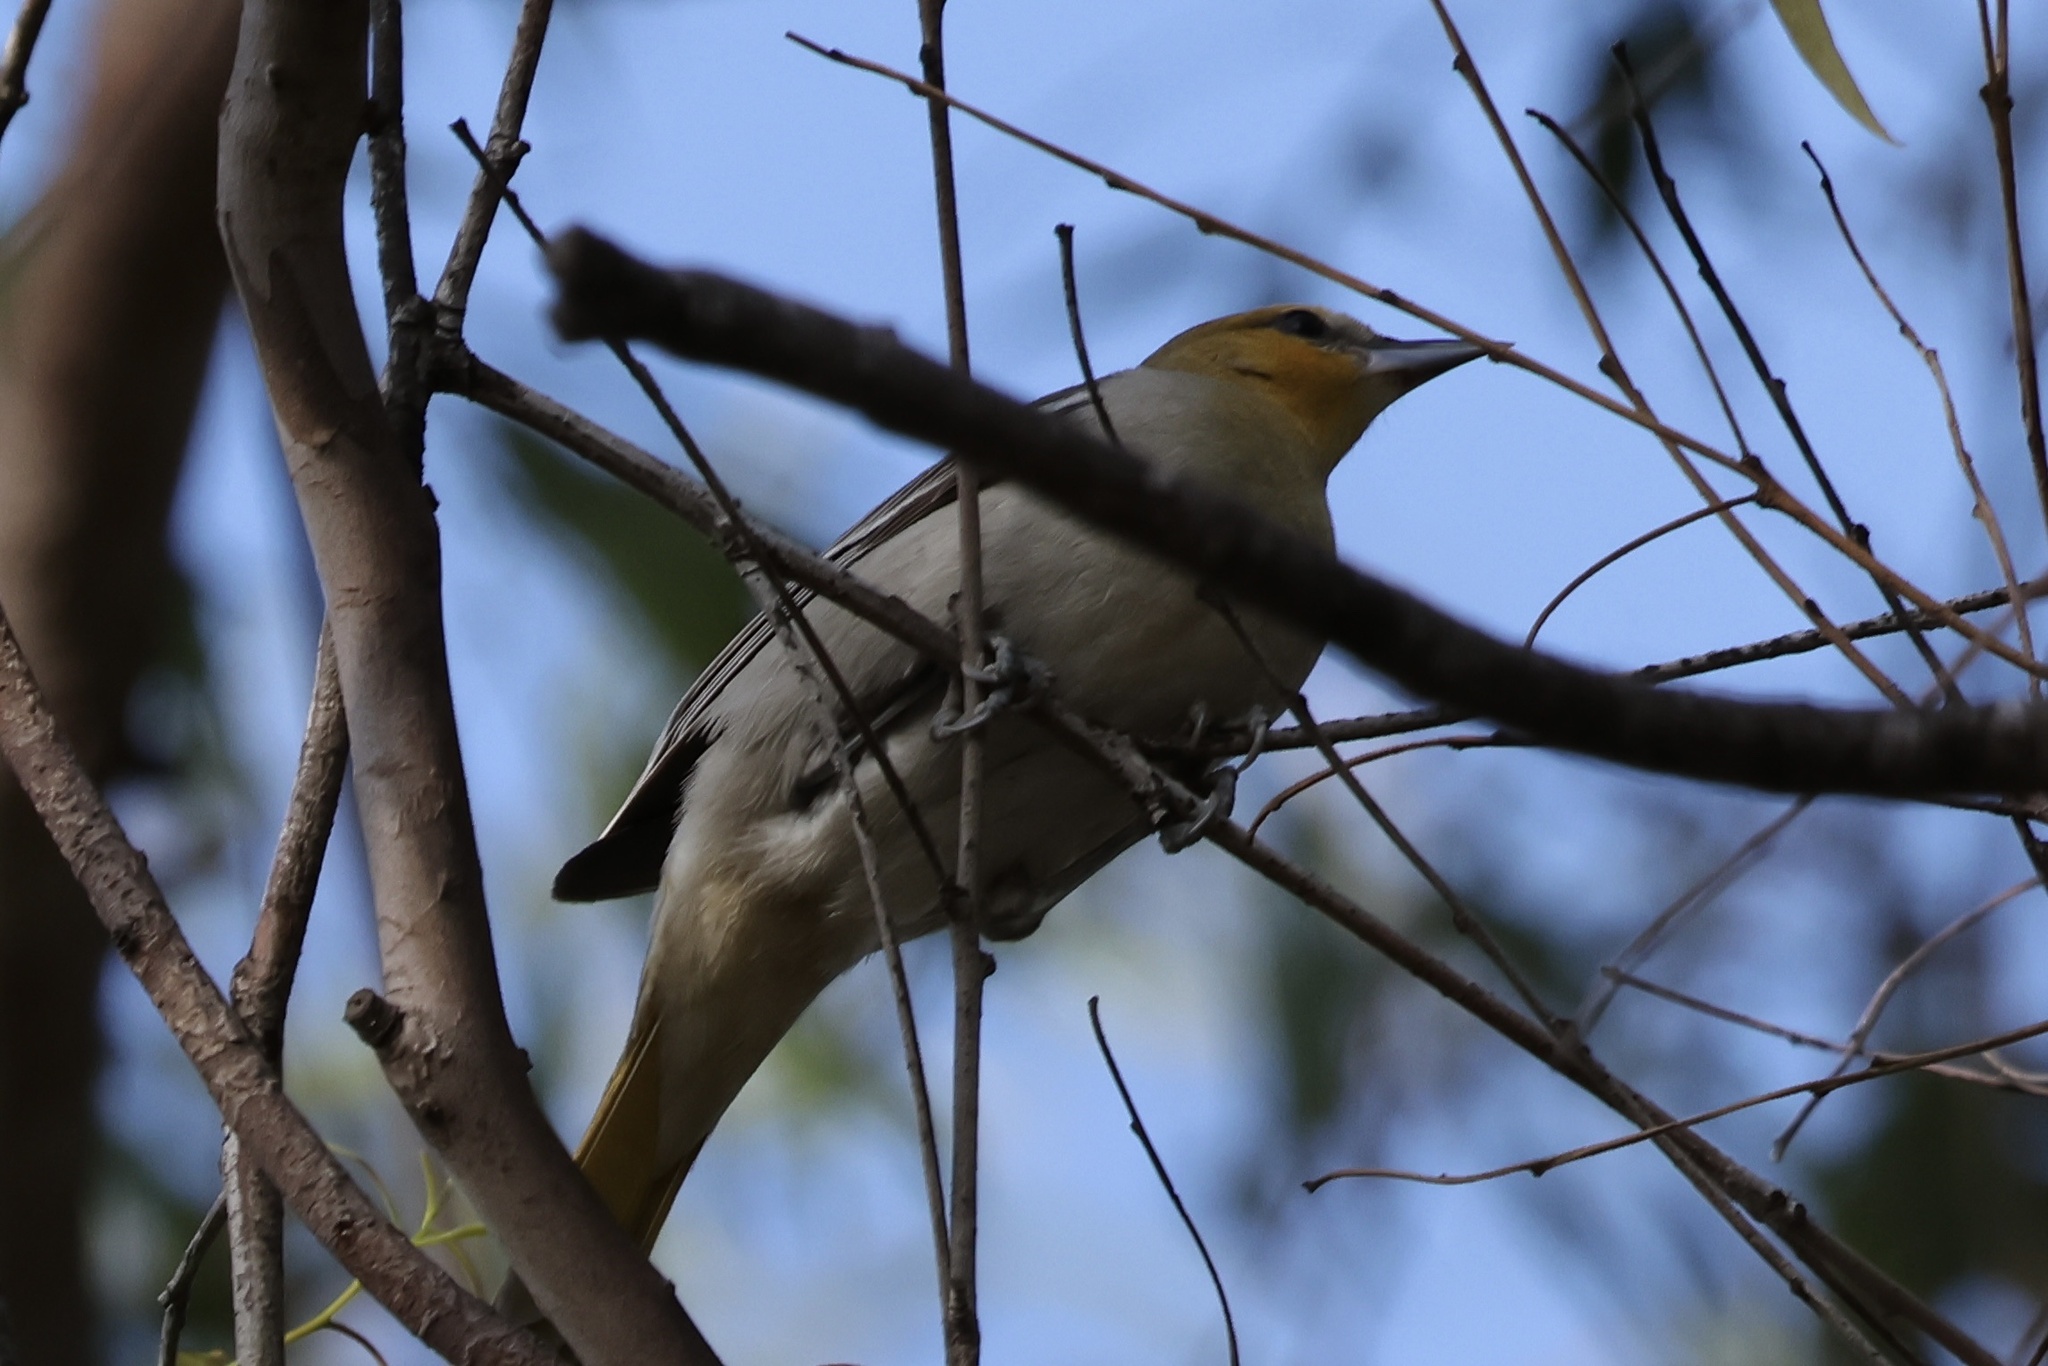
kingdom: Animalia
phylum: Chordata
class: Aves
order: Passeriformes
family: Icteridae
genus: Icterus
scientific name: Icterus bullockii
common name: Bullock's oriole
